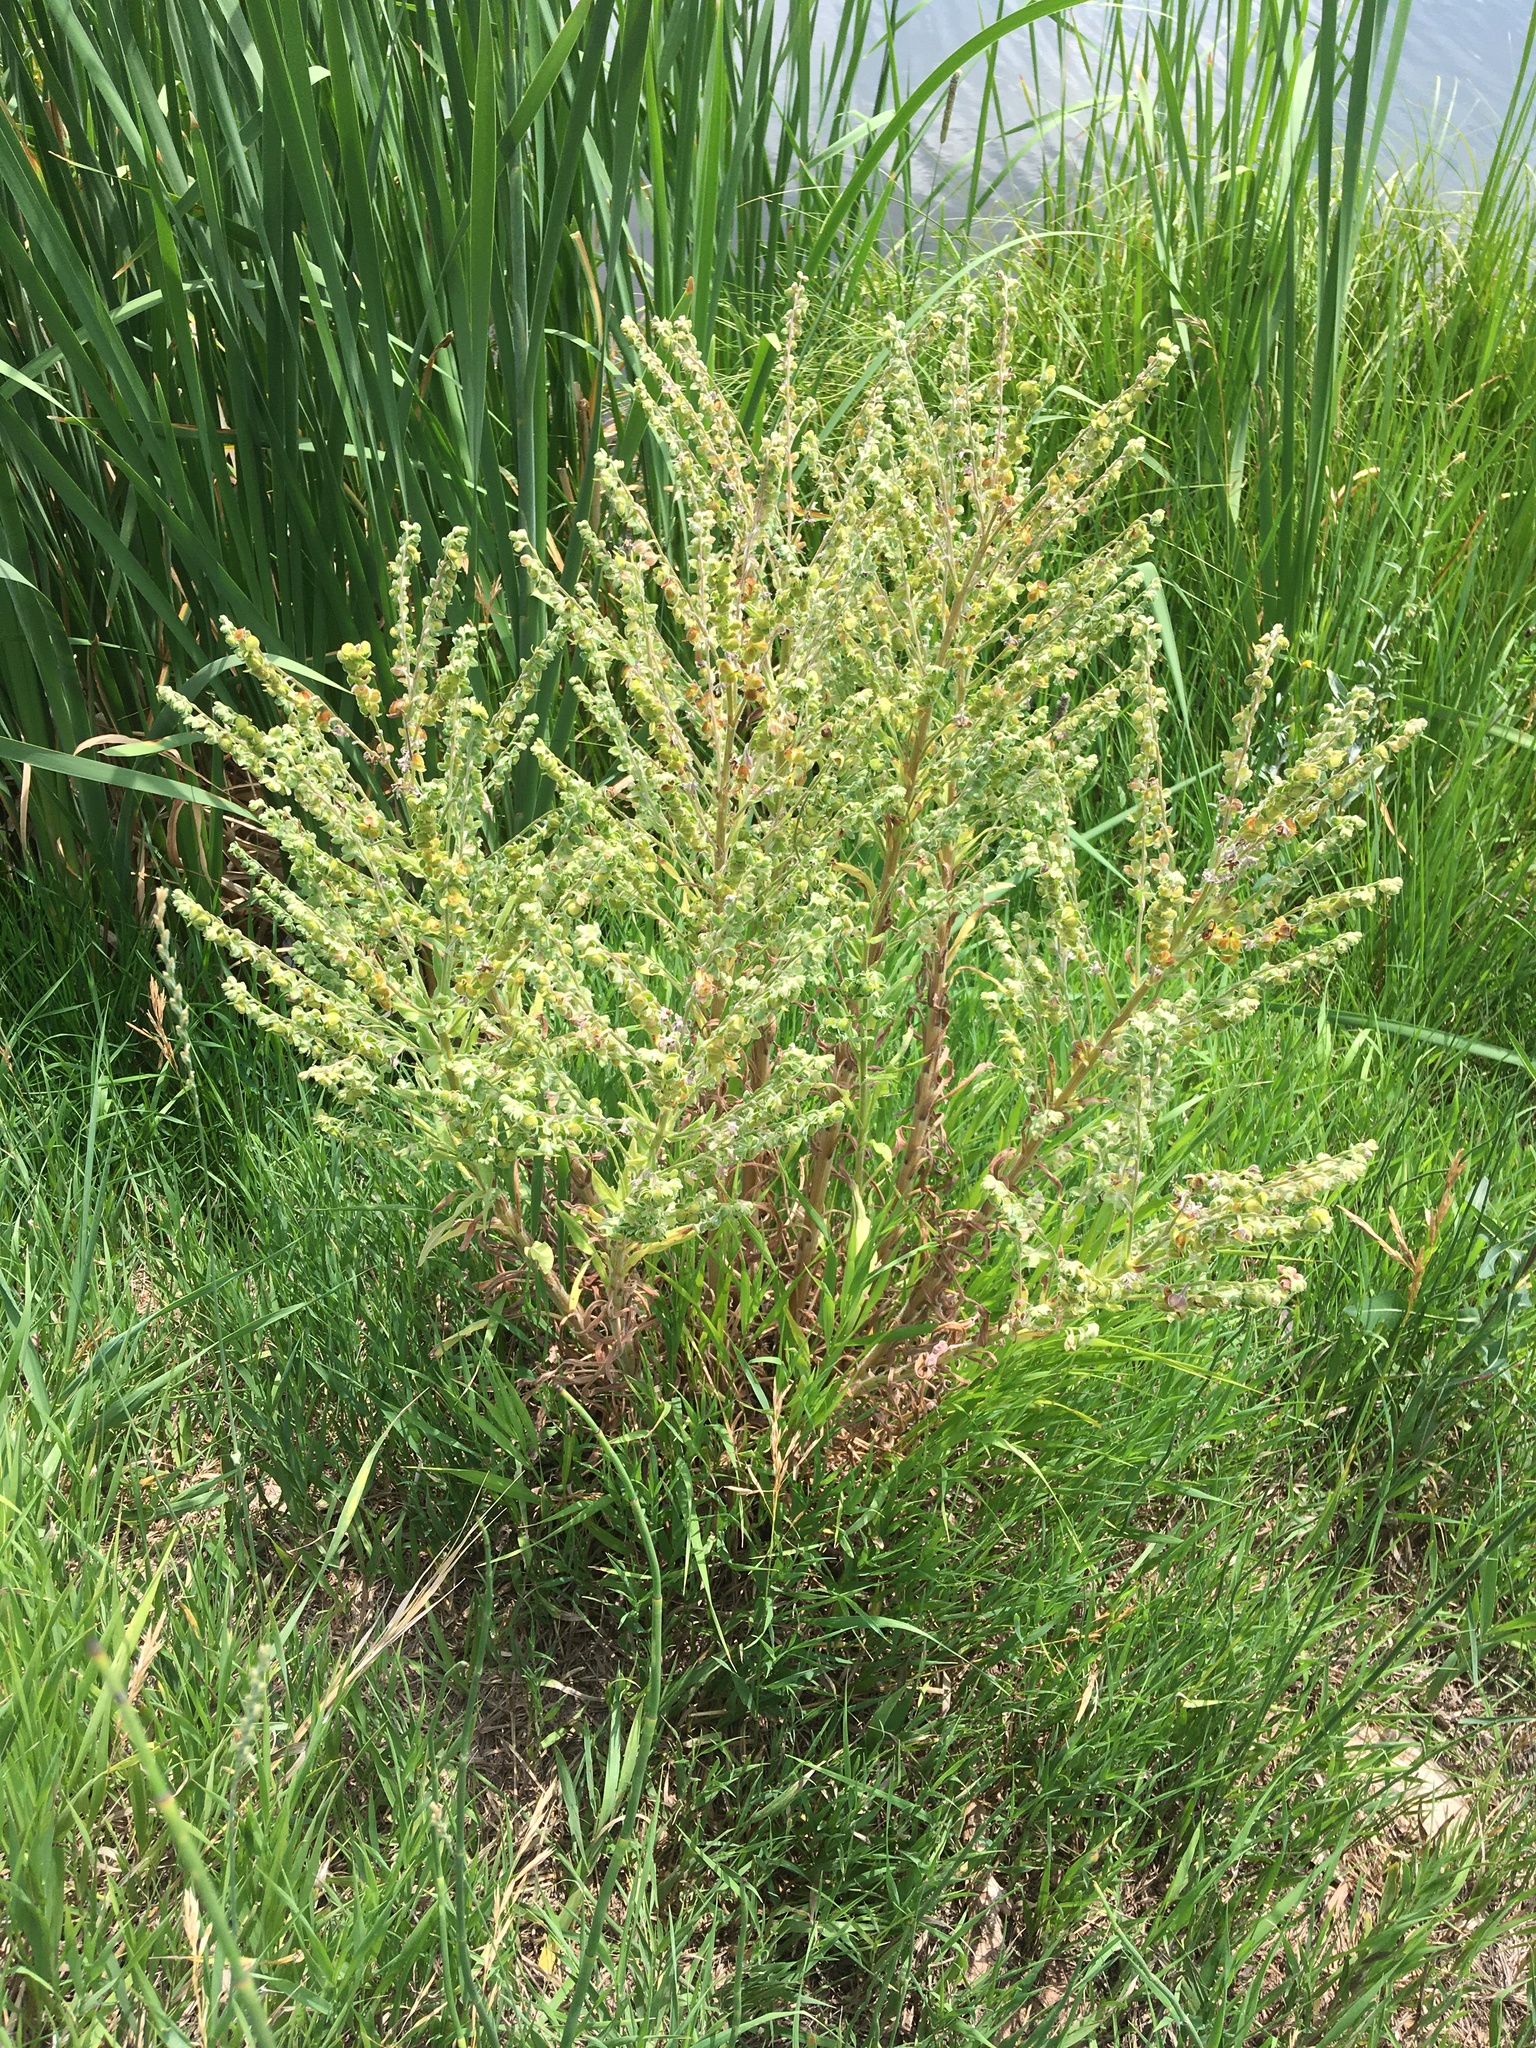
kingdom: Plantae
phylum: Tracheophyta
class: Magnoliopsida
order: Boraginales
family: Boraginaceae
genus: Cynoglossum
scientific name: Cynoglossum officinale
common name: Hound's-tongue
